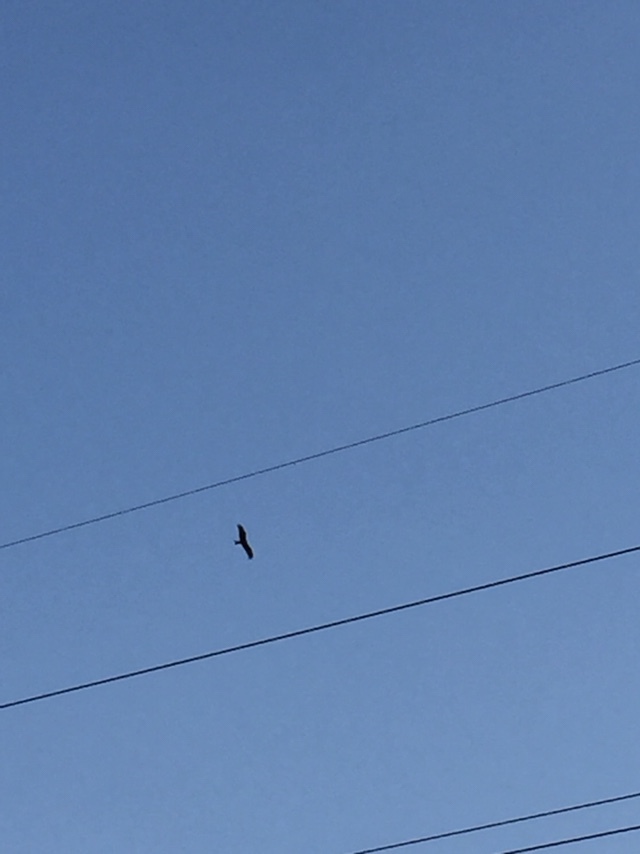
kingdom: Animalia
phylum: Chordata
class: Aves
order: Accipitriformes
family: Accipitridae
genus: Milvus
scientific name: Milvus migrans
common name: Black kite
